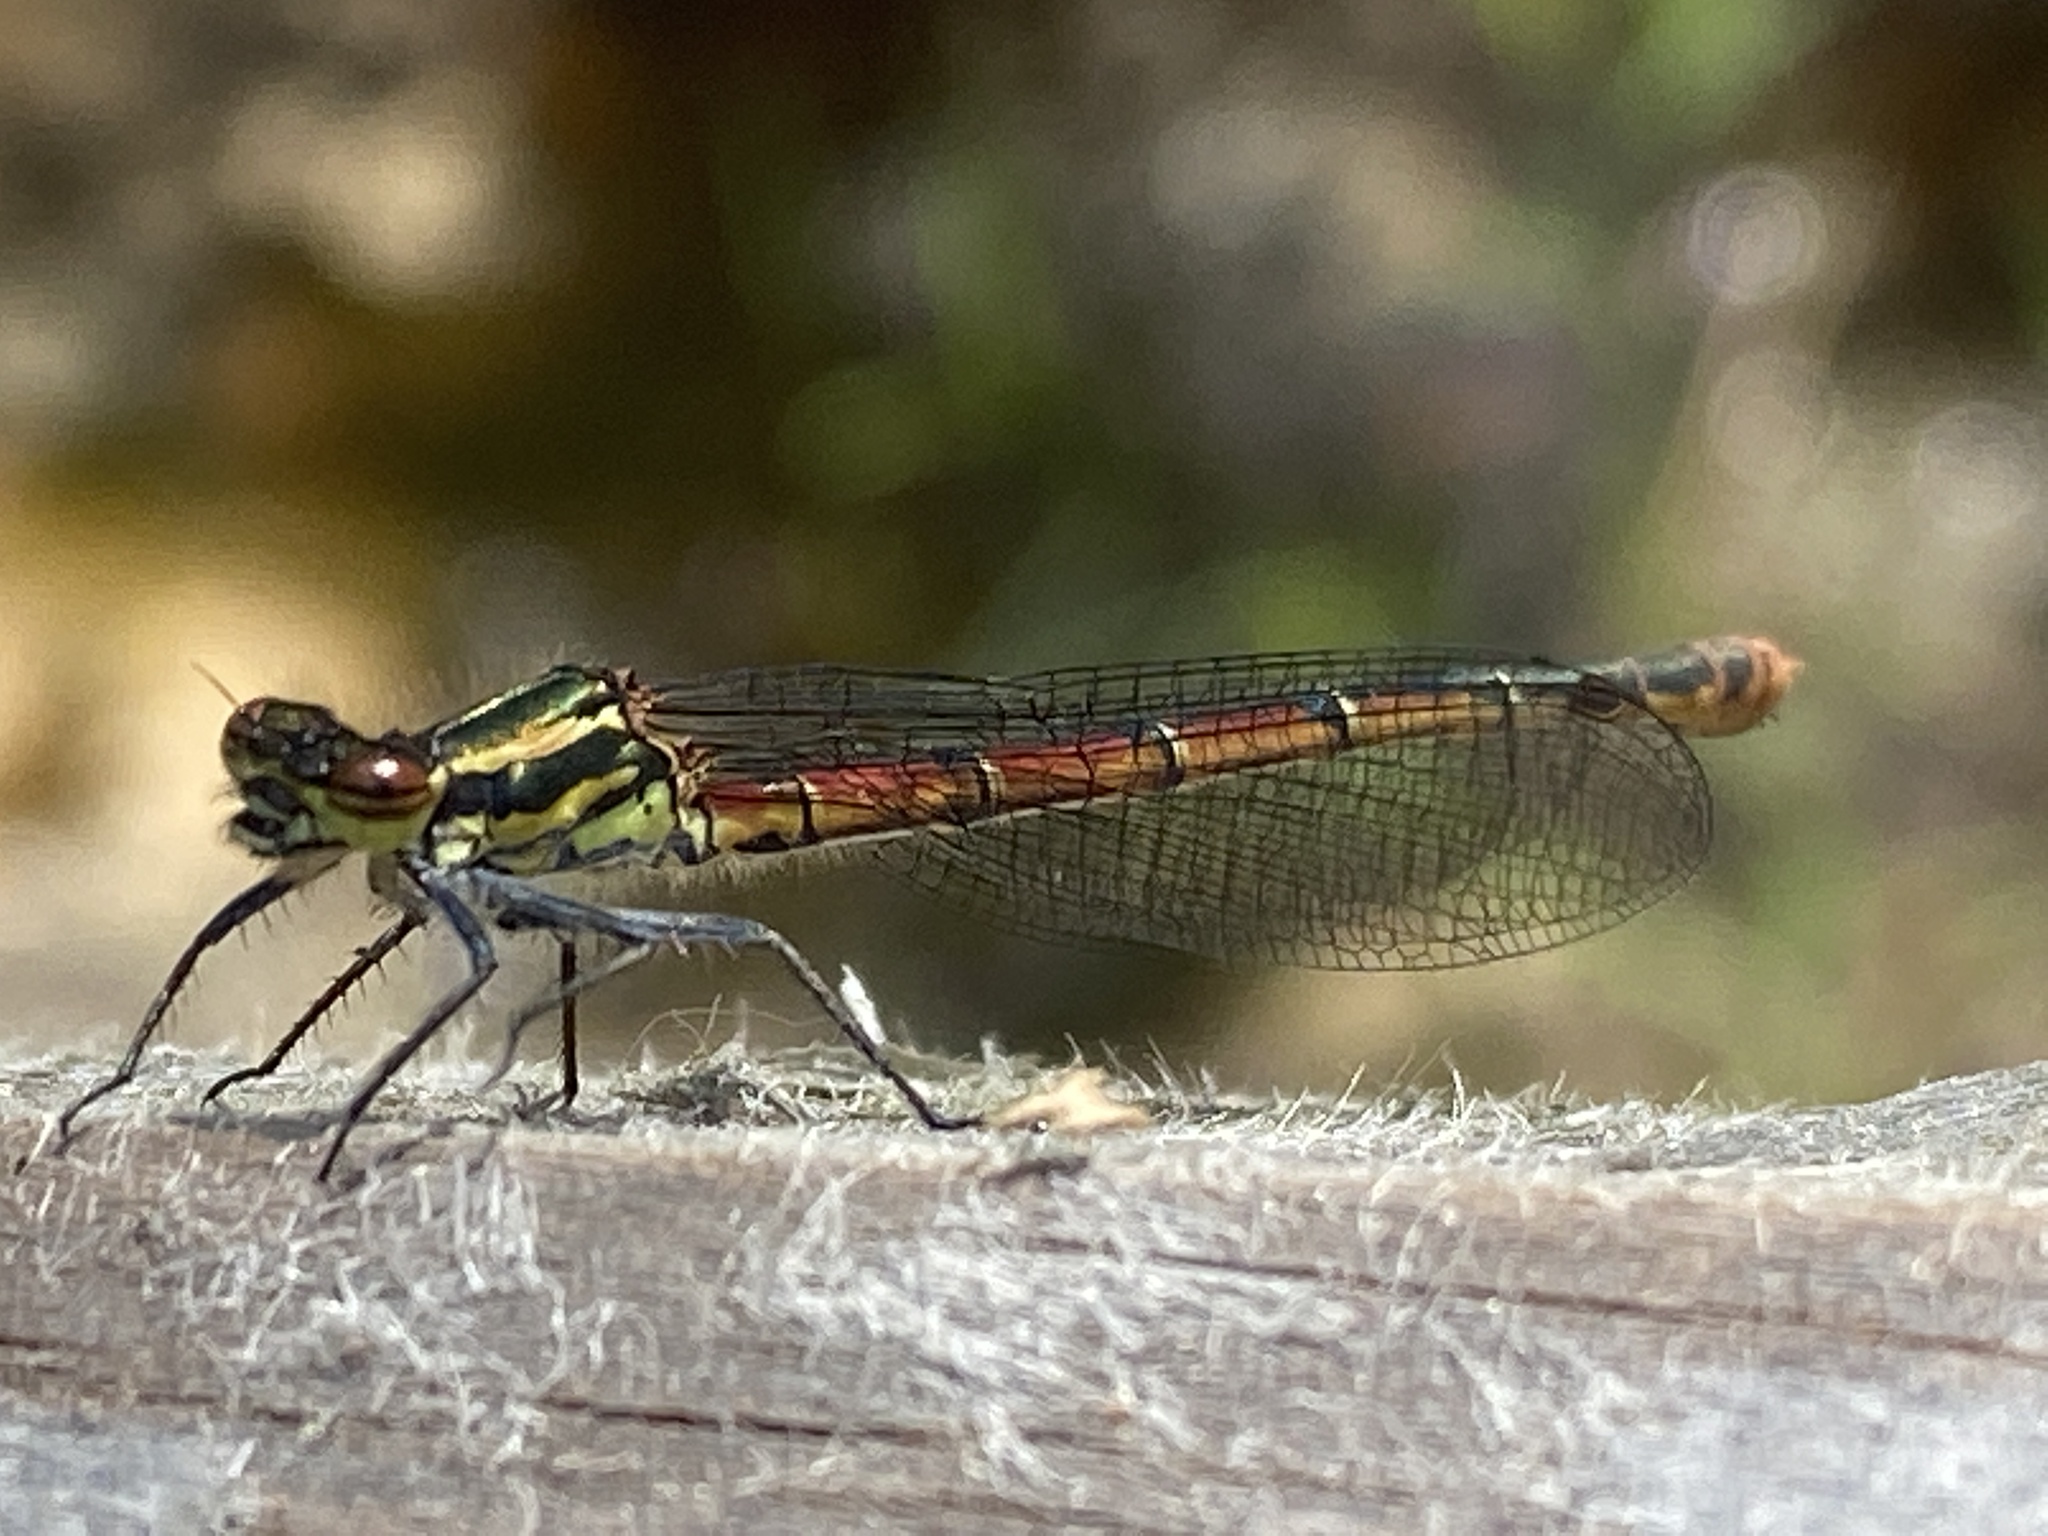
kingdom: Animalia
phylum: Arthropoda
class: Insecta
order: Odonata
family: Coenagrionidae
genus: Pyrrhosoma
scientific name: Pyrrhosoma nymphula
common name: Large red damsel
